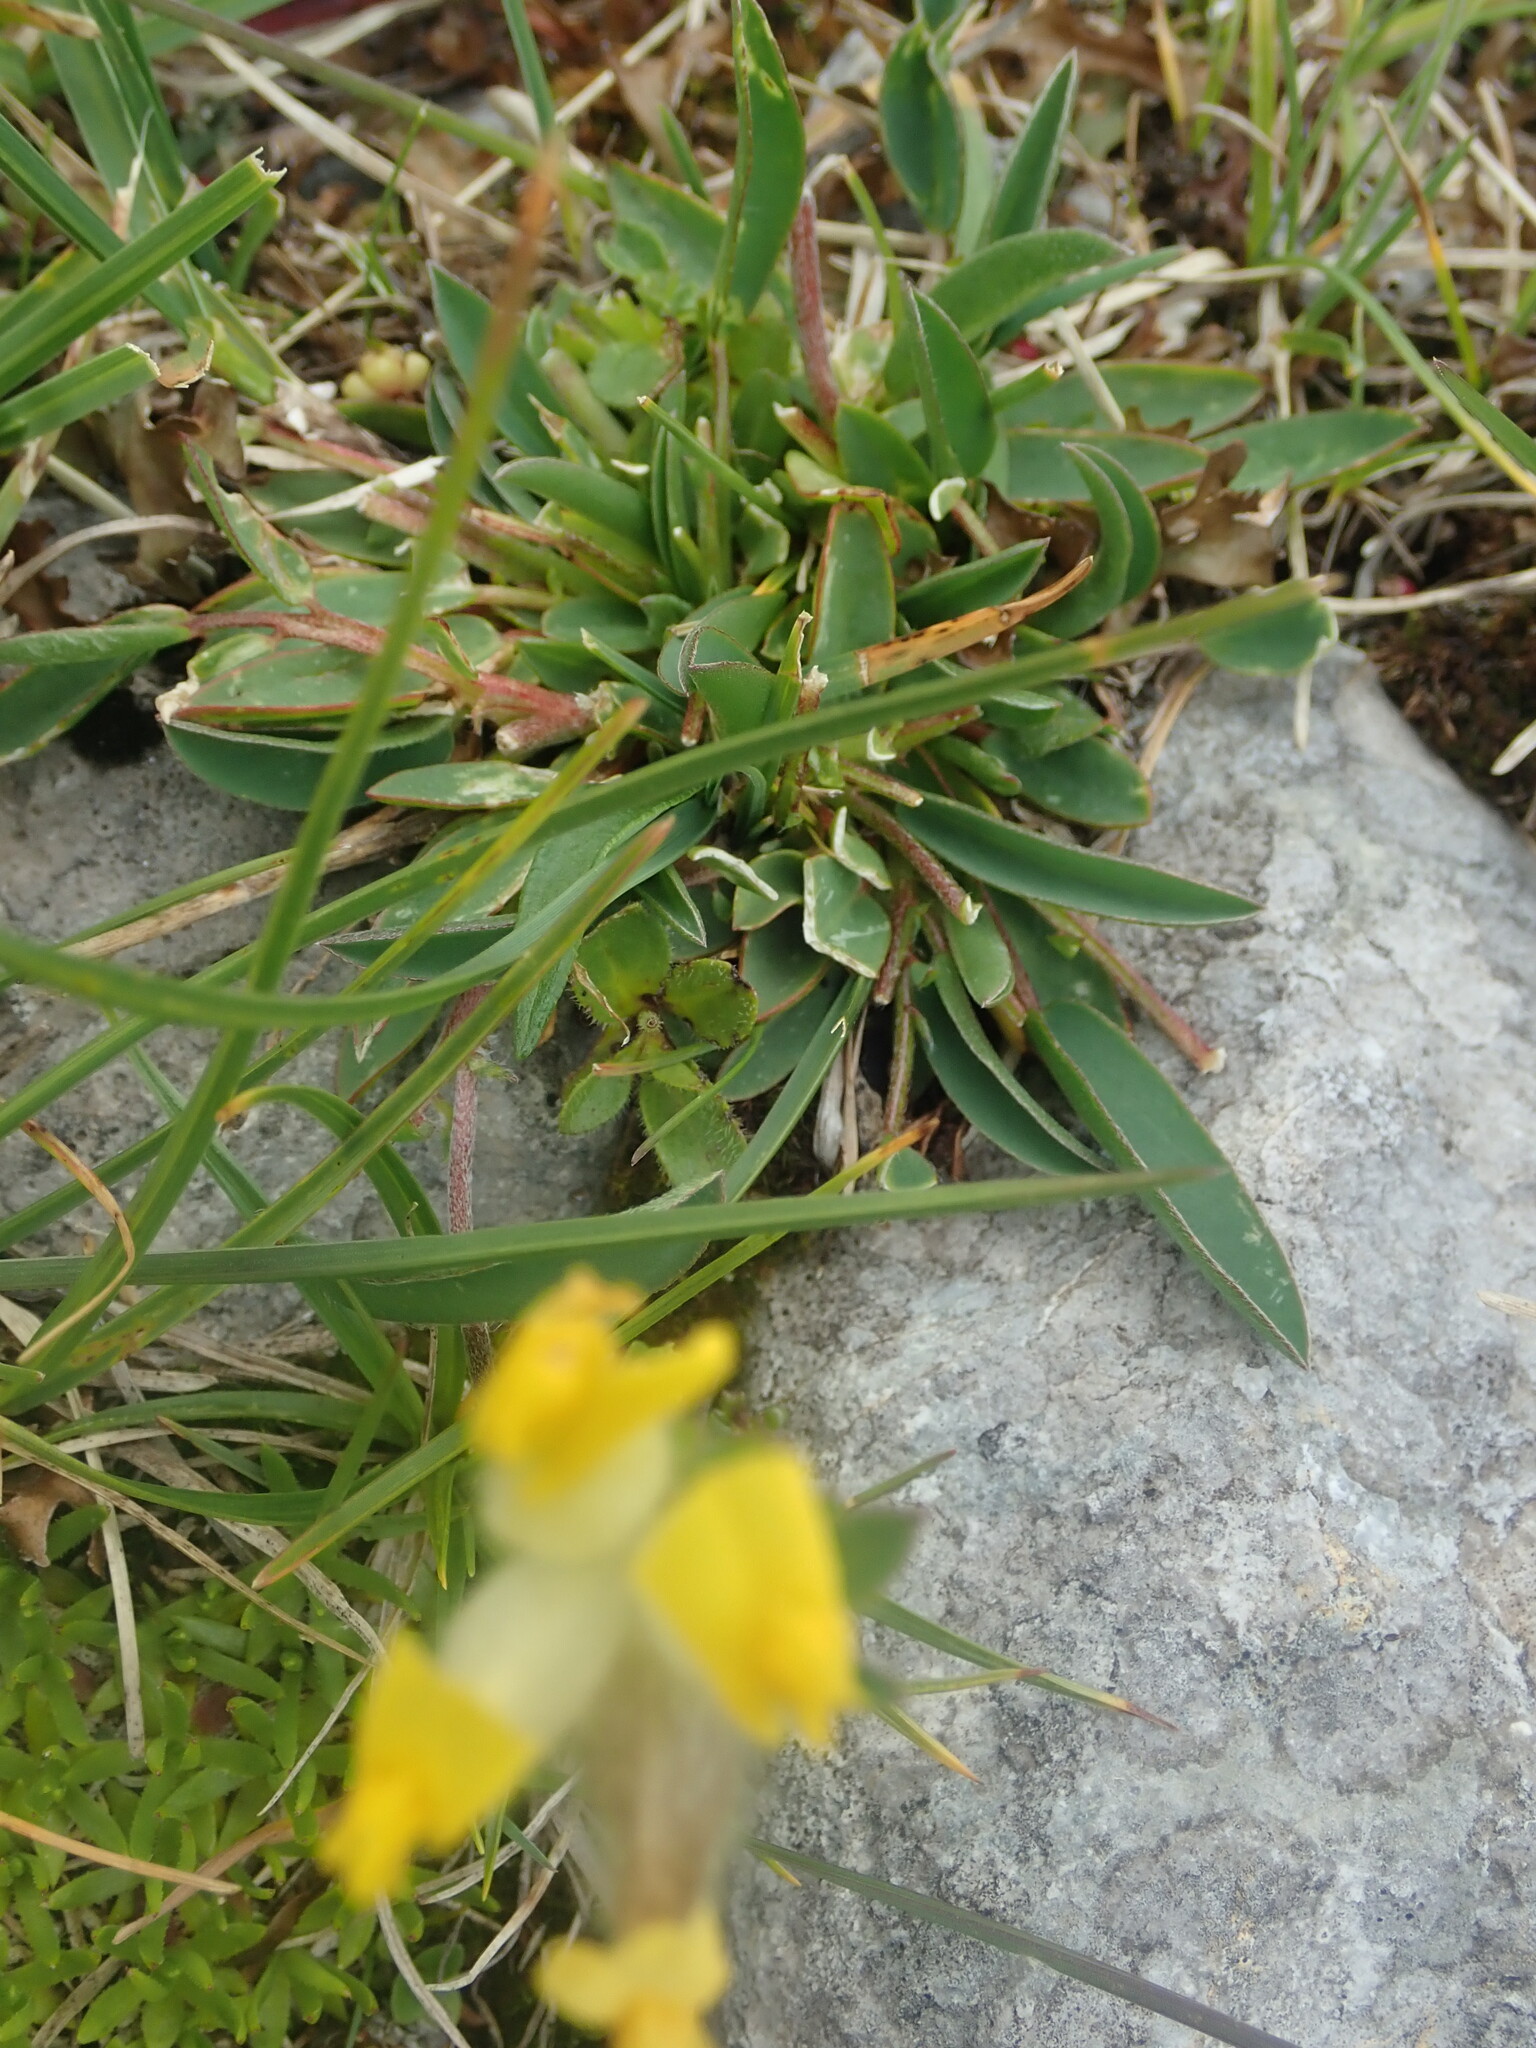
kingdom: Plantae
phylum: Tracheophyta
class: Magnoliopsida
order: Fabales
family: Fabaceae
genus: Anthyllis
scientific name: Anthyllis vulneraria
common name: Kidney vetch
